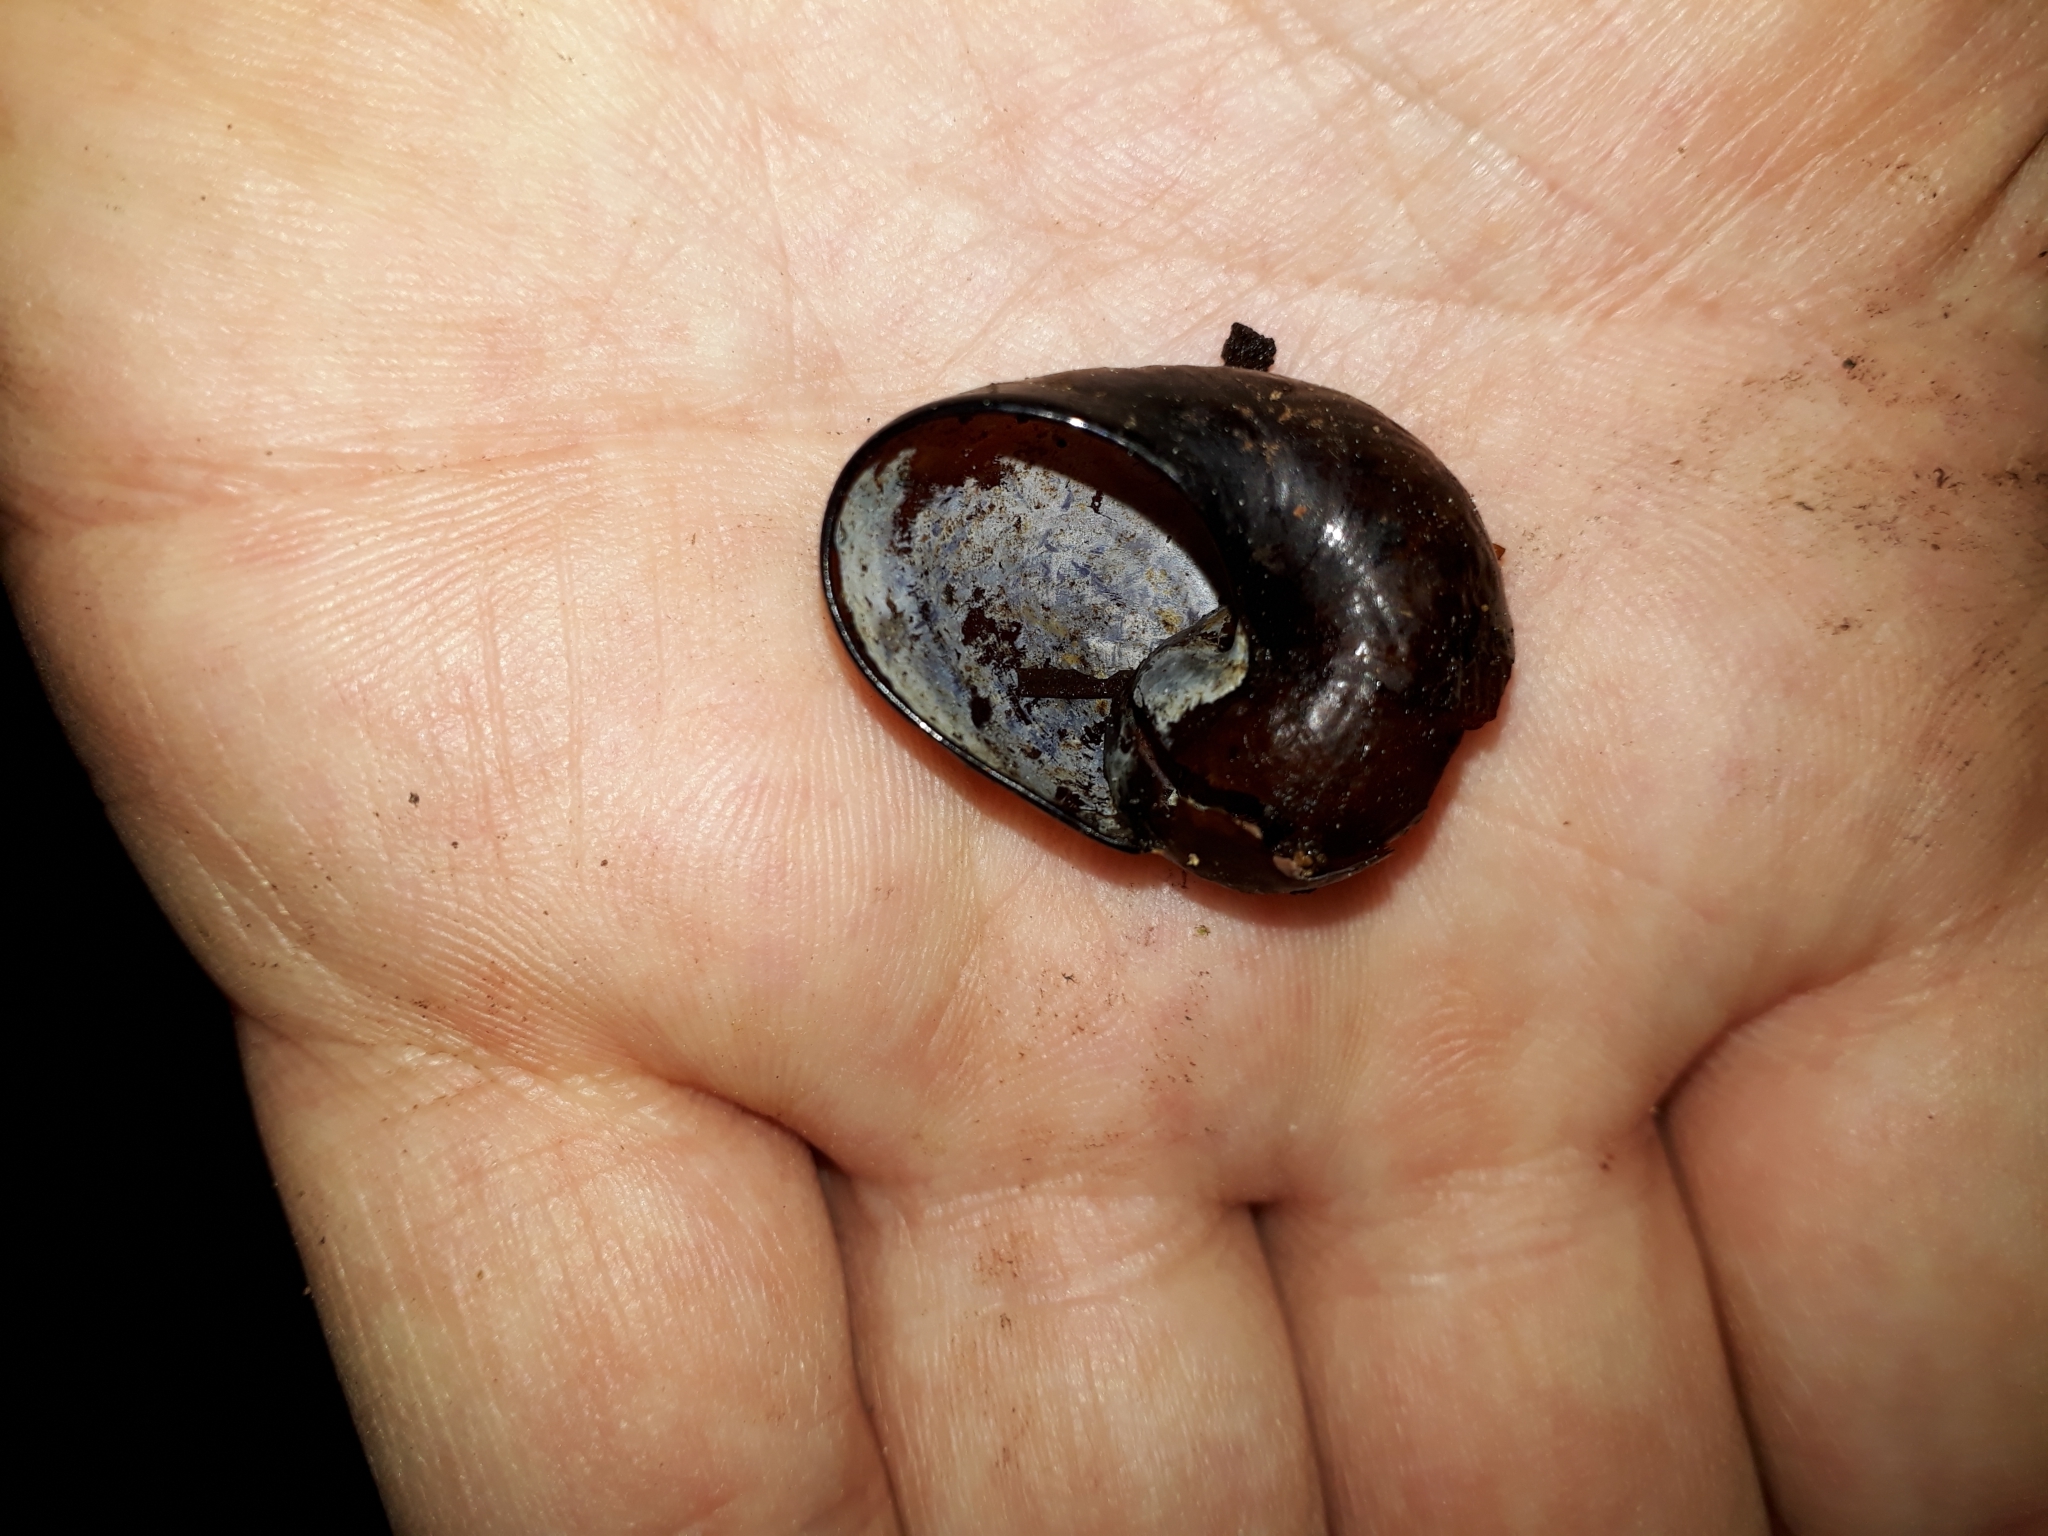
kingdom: Animalia
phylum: Mollusca
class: Gastropoda
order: Stylommatophora
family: Rhytididae
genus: Wainuia
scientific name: Wainuia urnula
